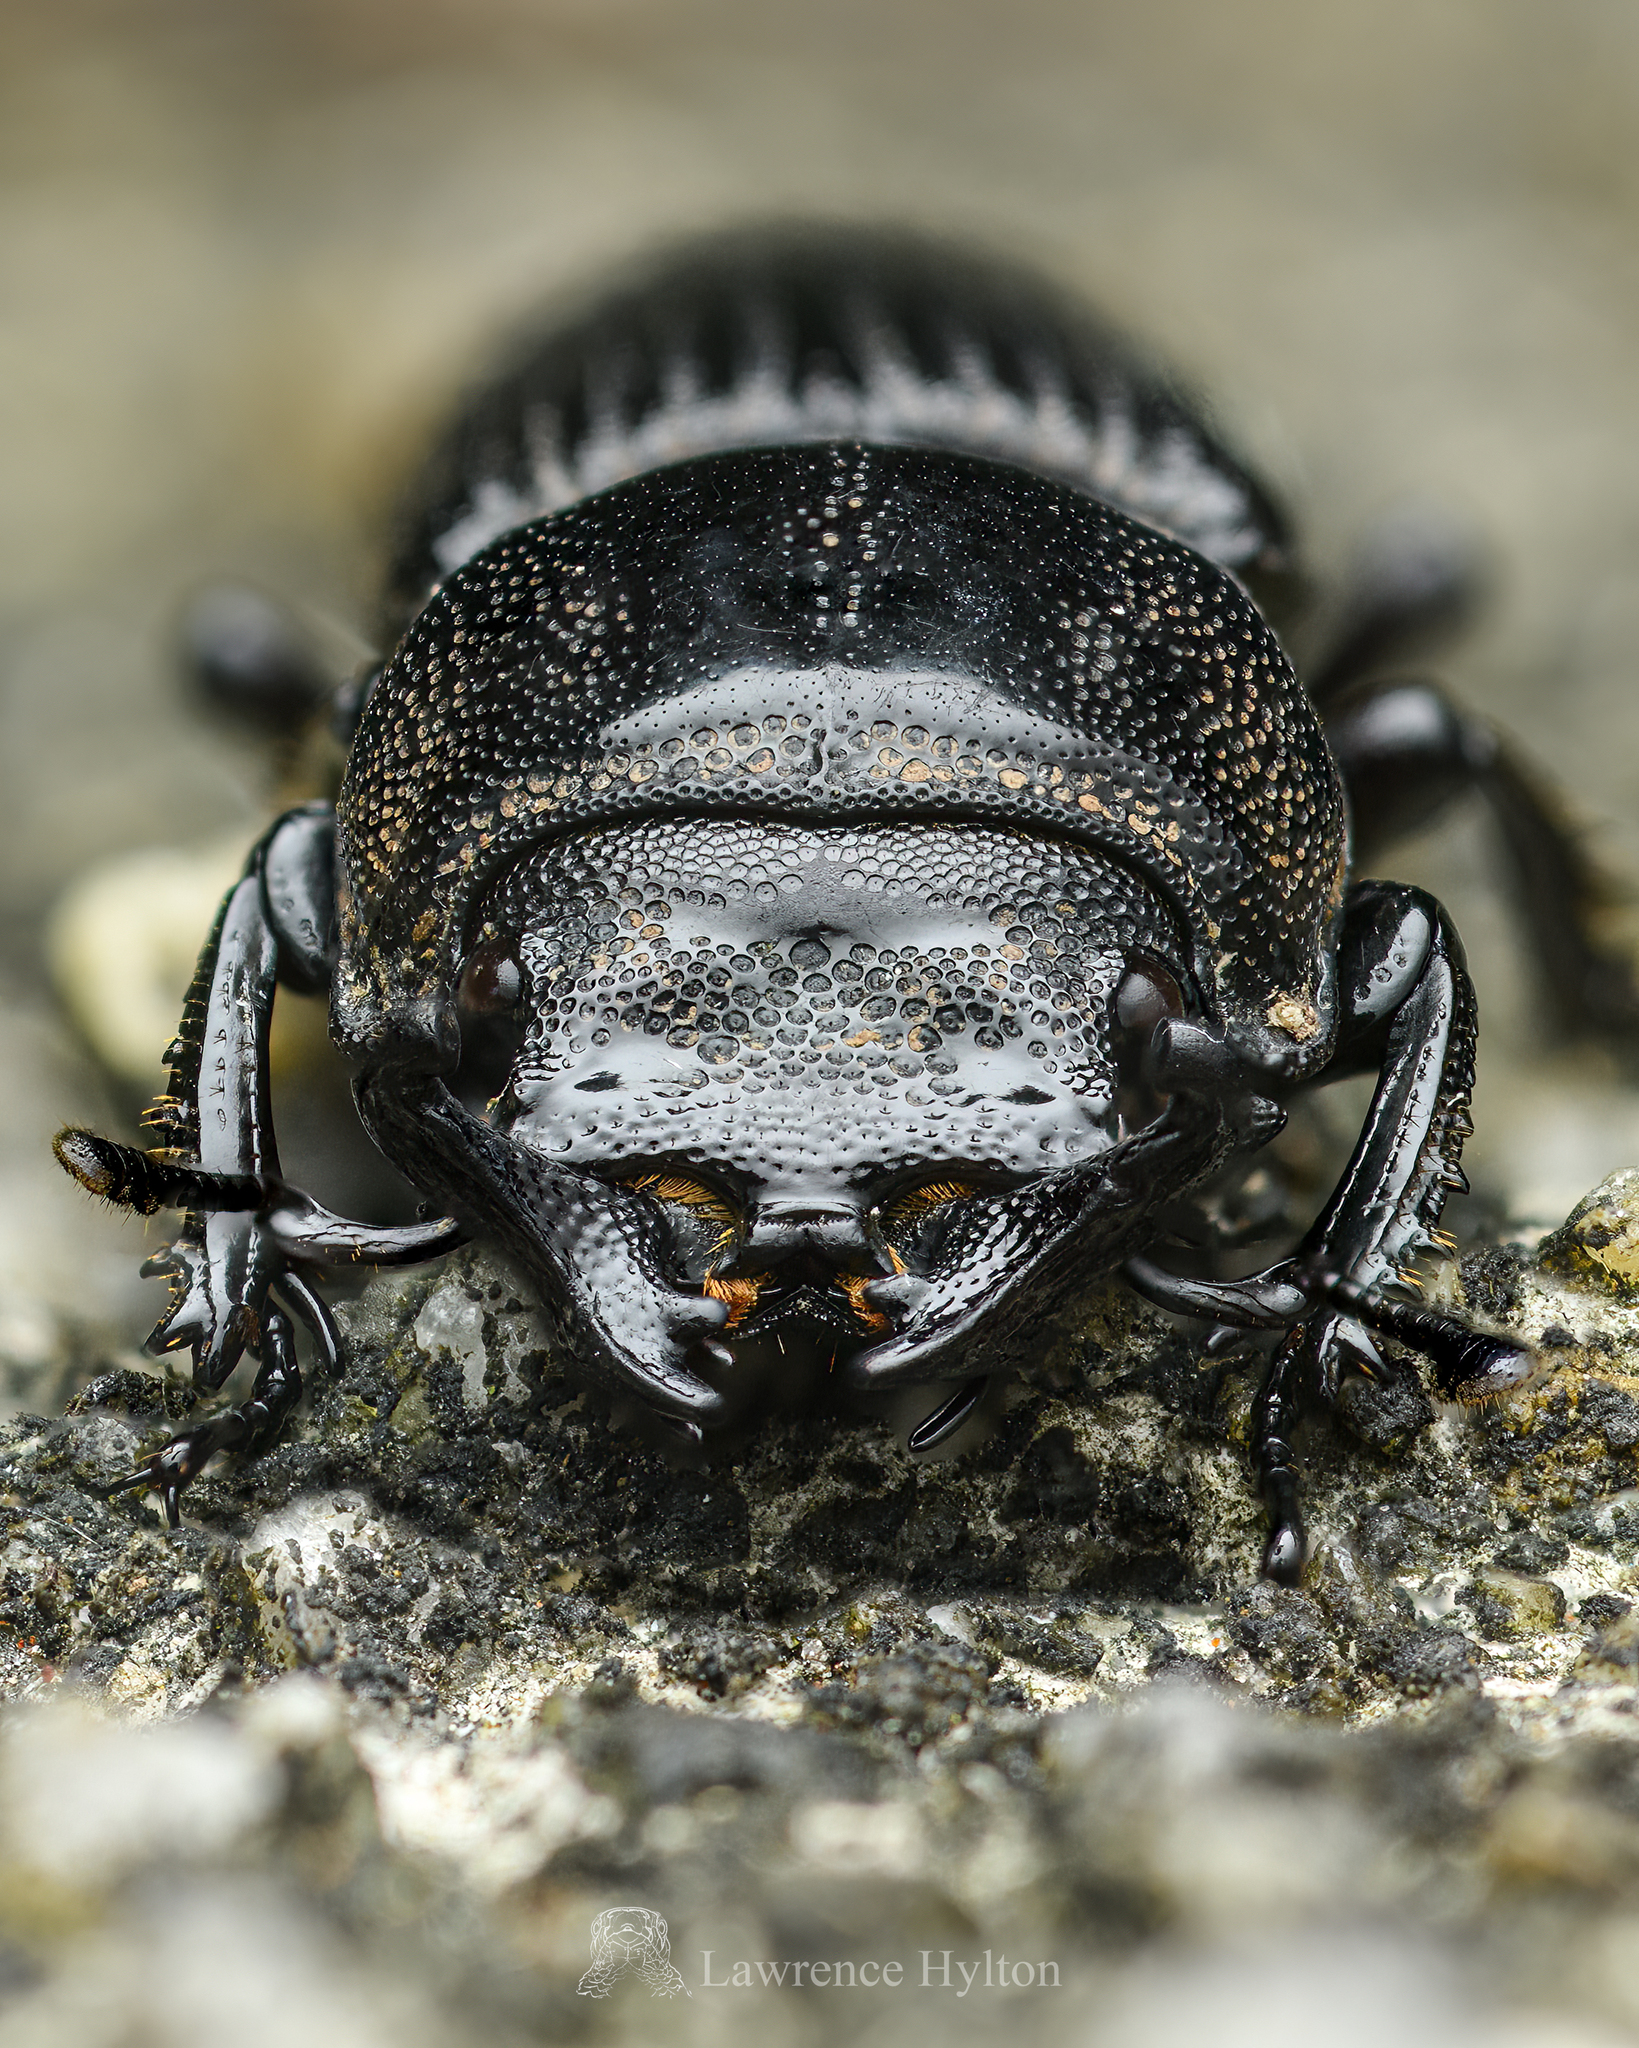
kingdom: Animalia
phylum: Arthropoda
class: Insecta
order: Coleoptera
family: Lucanidae
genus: Nigidius
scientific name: Nigidius sinicus
